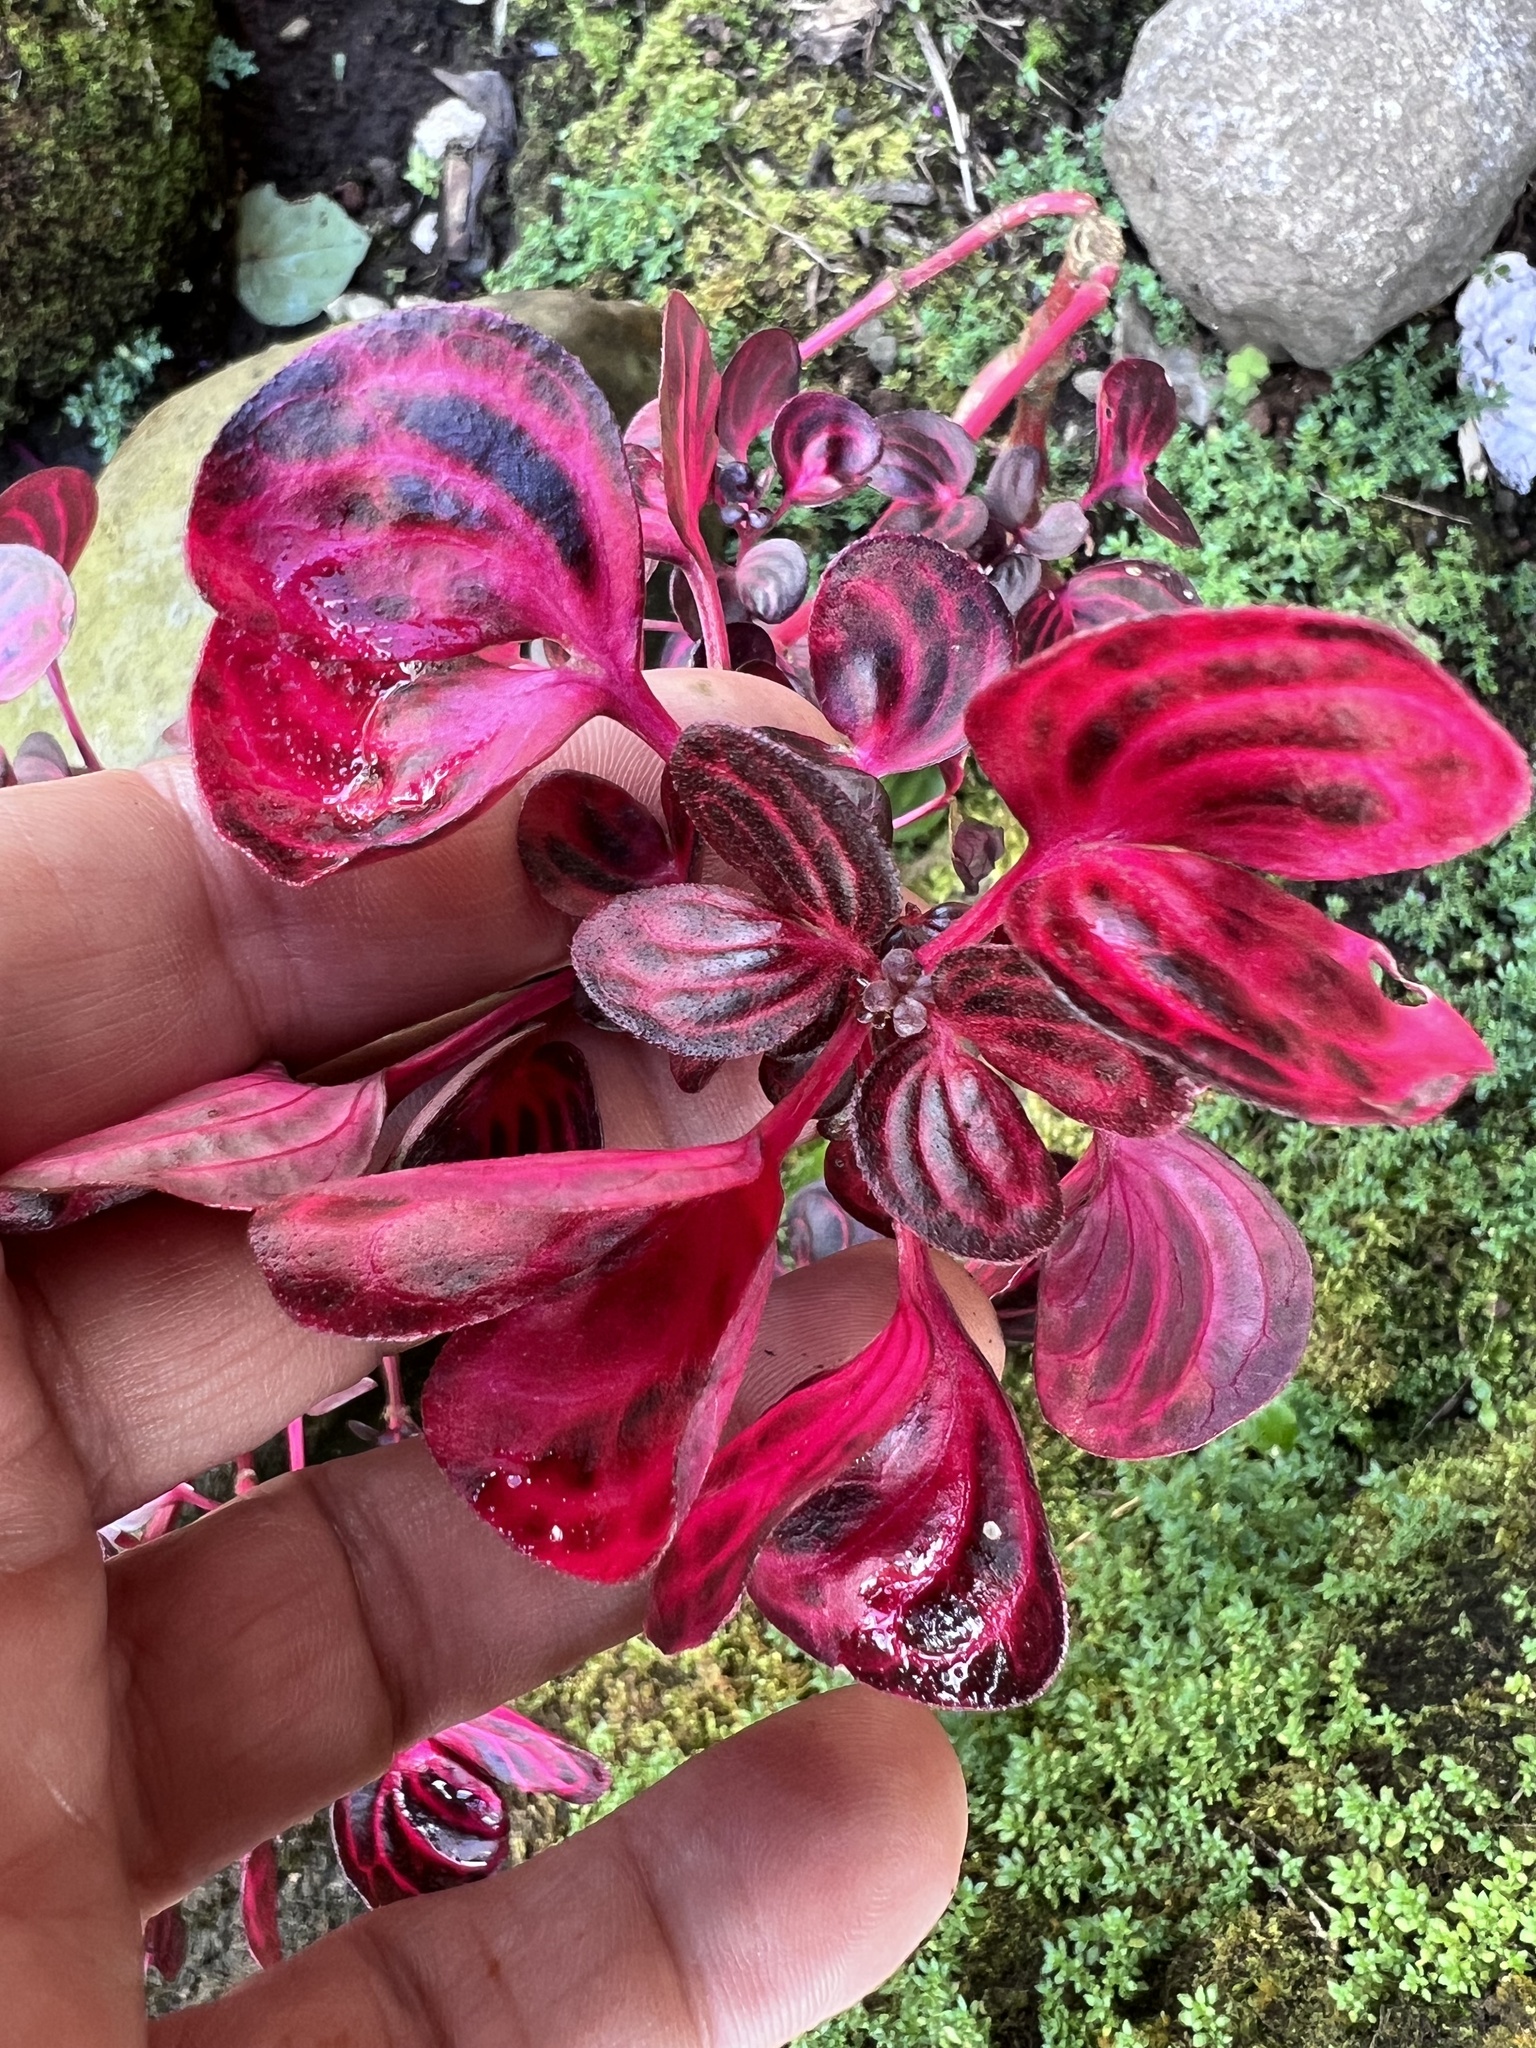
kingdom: Plantae
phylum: Tracheophyta
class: Magnoliopsida
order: Caryophyllales
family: Amaranthaceae
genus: Iresine
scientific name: Iresine diffusa
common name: Juba's-bush
